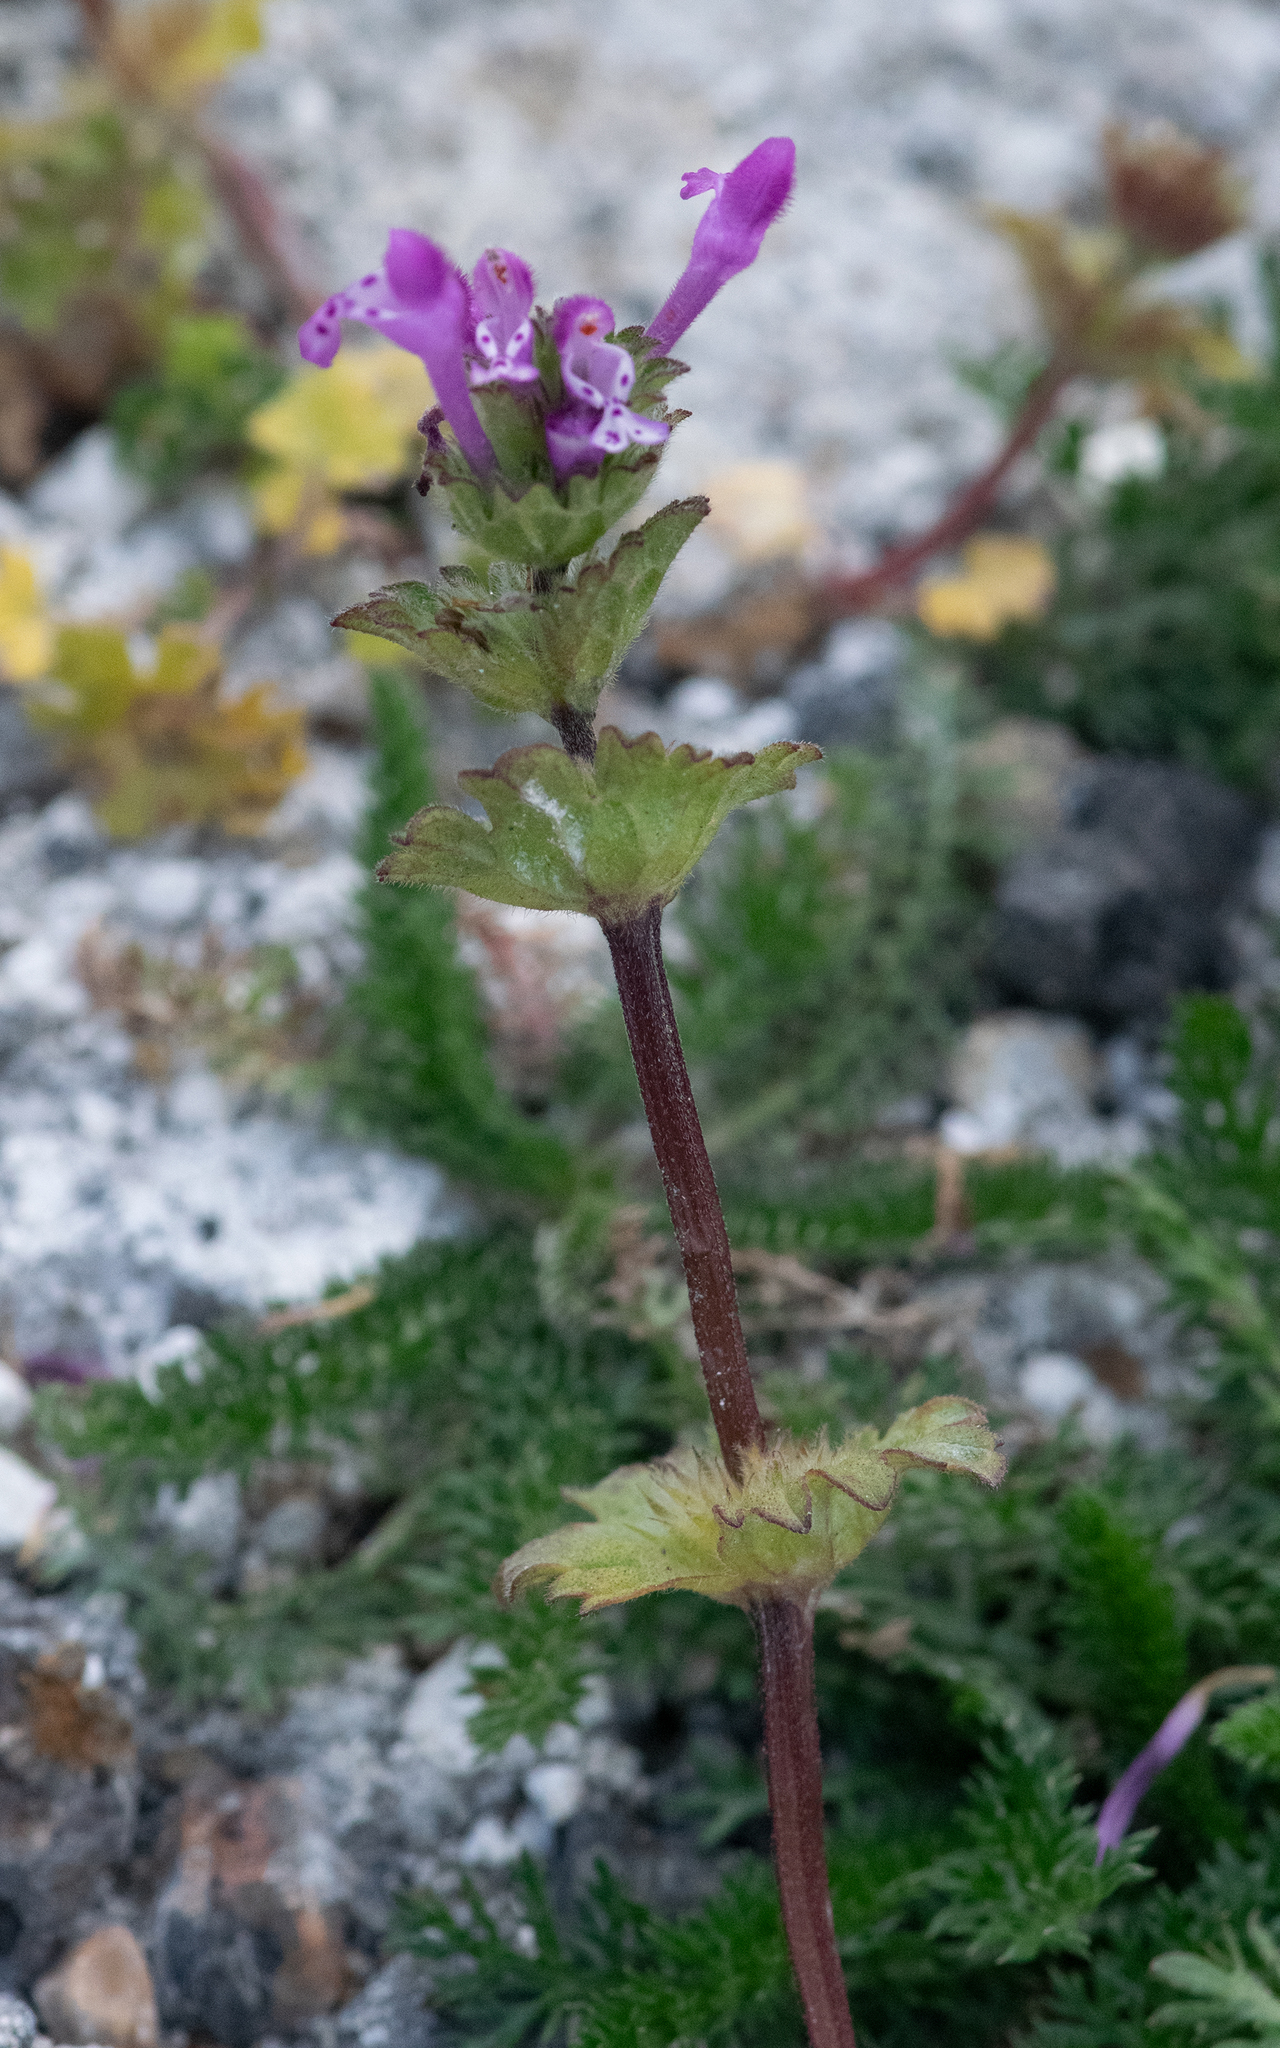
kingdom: Plantae
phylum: Tracheophyta
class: Magnoliopsida
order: Lamiales
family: Lamiaceae
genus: Lamium
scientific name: Lamium amplexicaule
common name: Henbit dead-nettle
